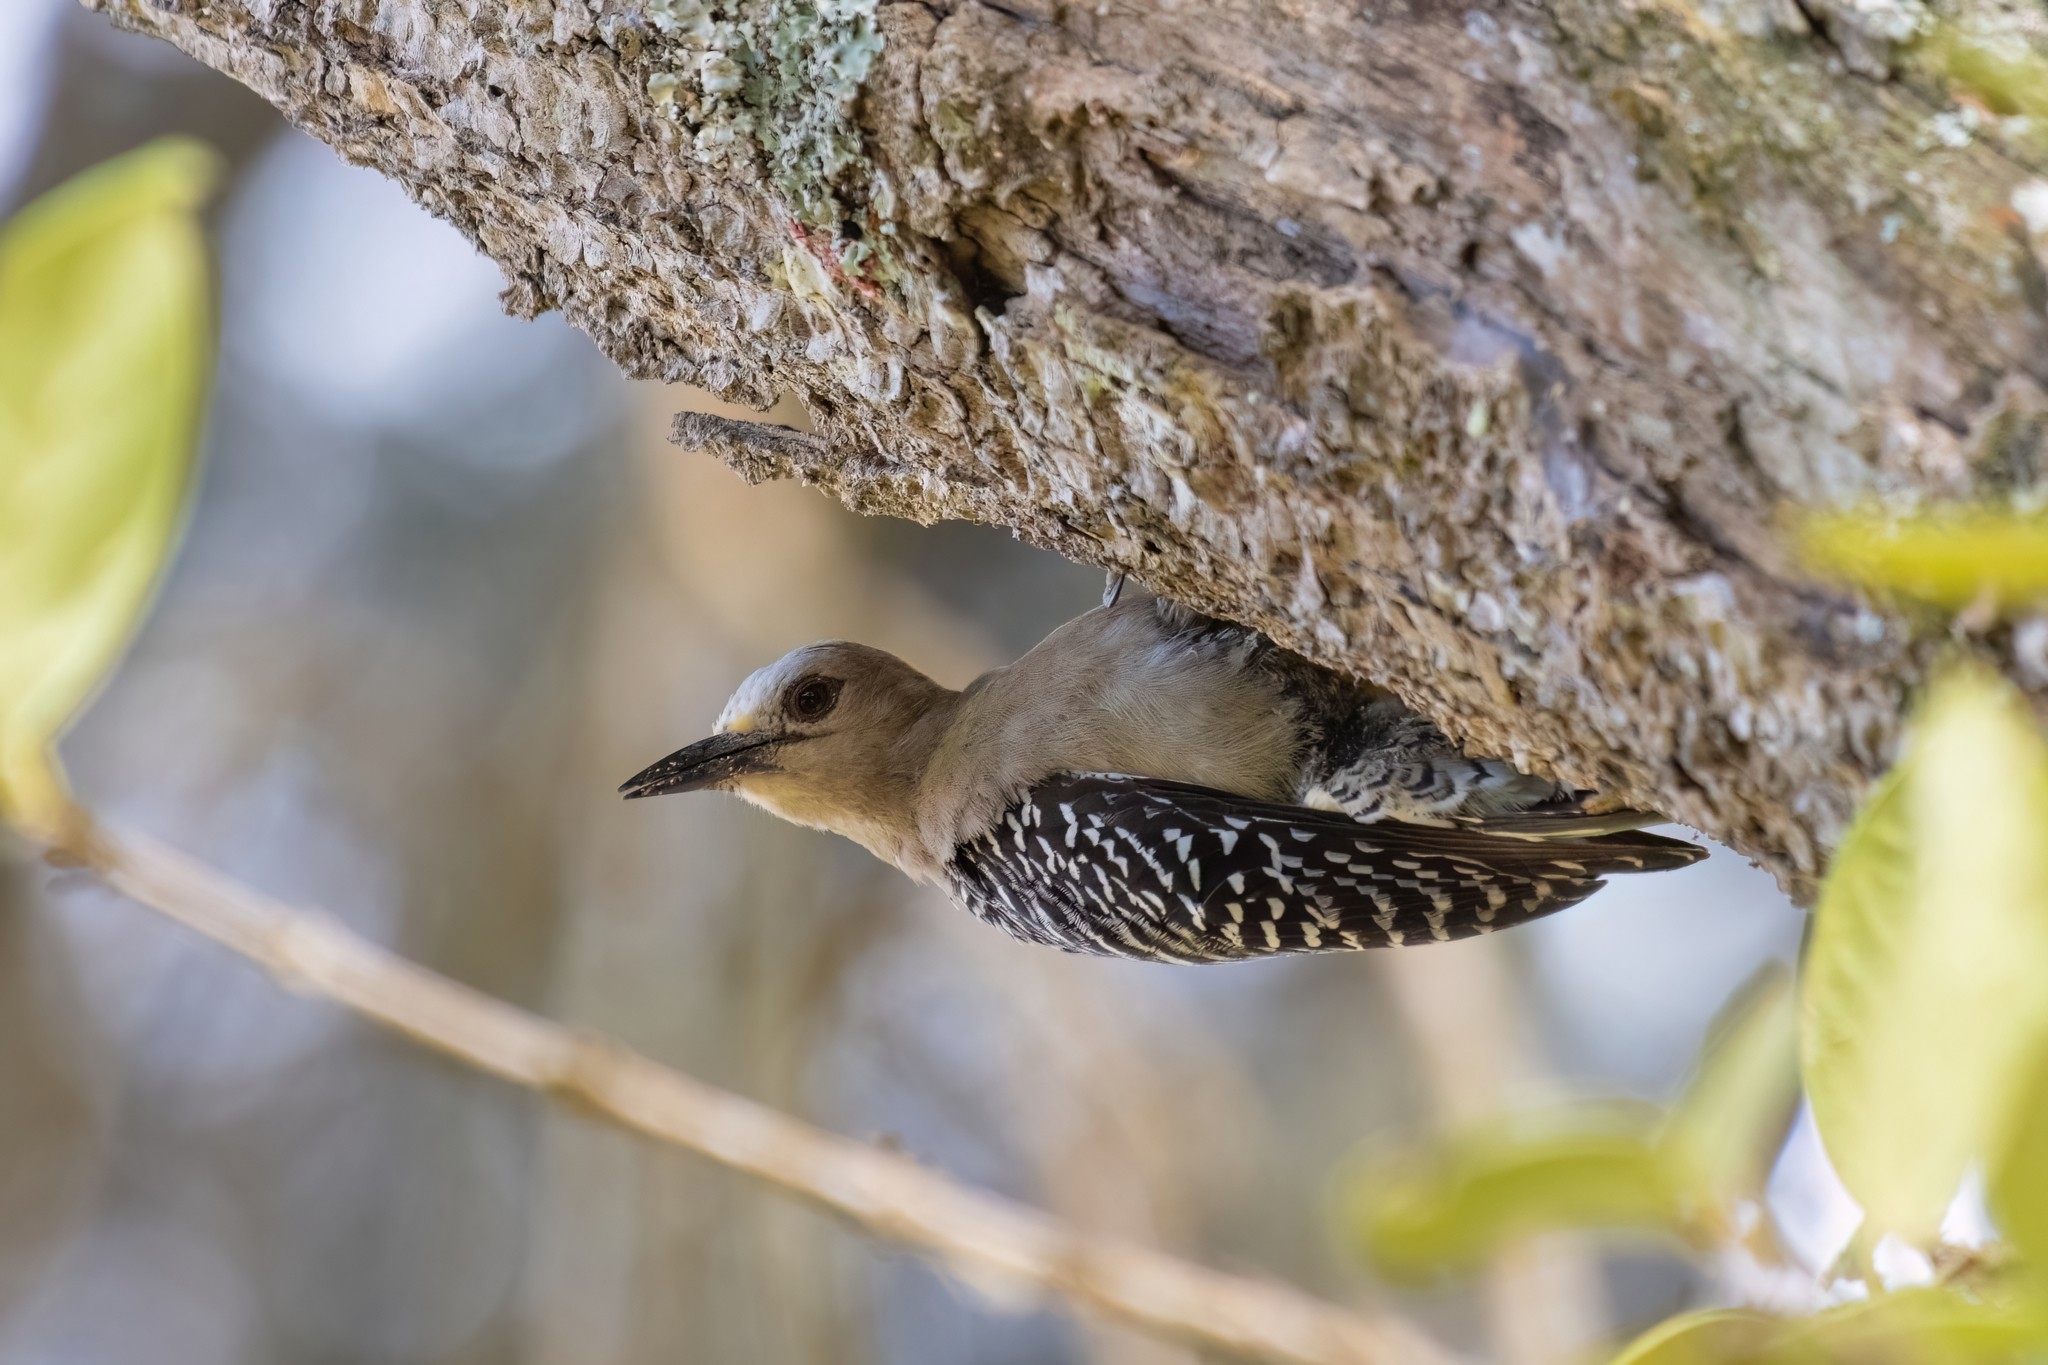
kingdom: Animalia
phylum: Chordata
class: Aves
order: Piciformes
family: Picidae
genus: Melanerpes
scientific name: Melanerpes hoffmannii
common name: Hoffmann's woodpecker
